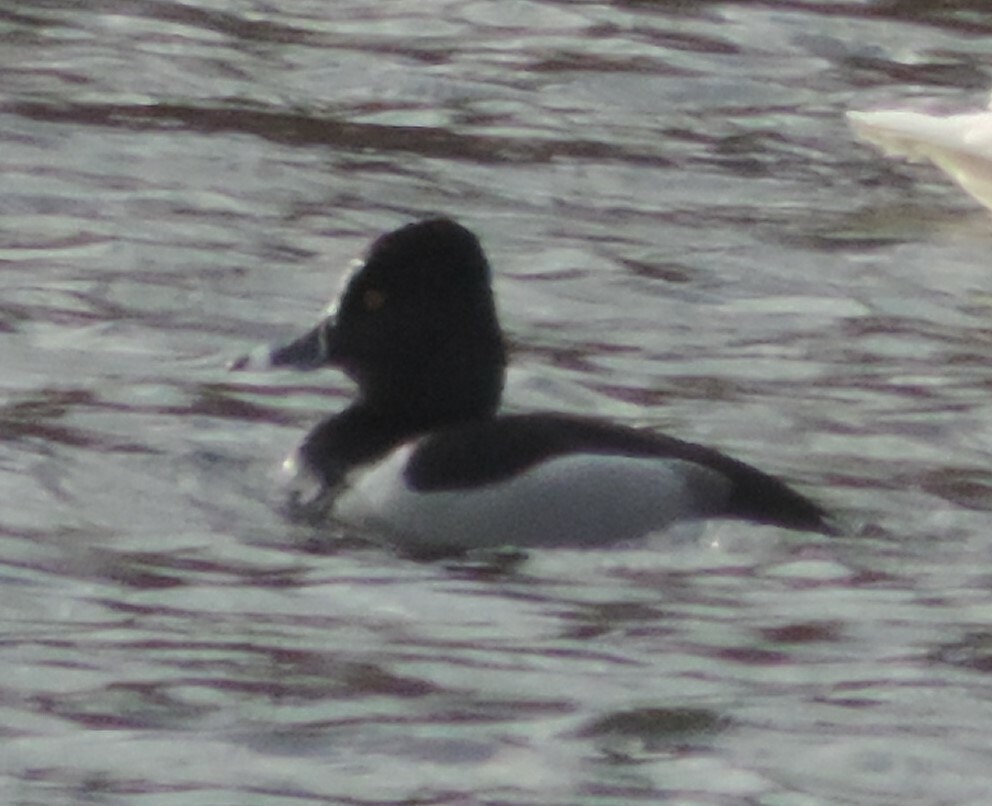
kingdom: Animalia
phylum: Chordata
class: Aves
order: Anseriformes
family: Anatidae
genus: Aythya
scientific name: Aythya collaris
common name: Ring-necked duck
